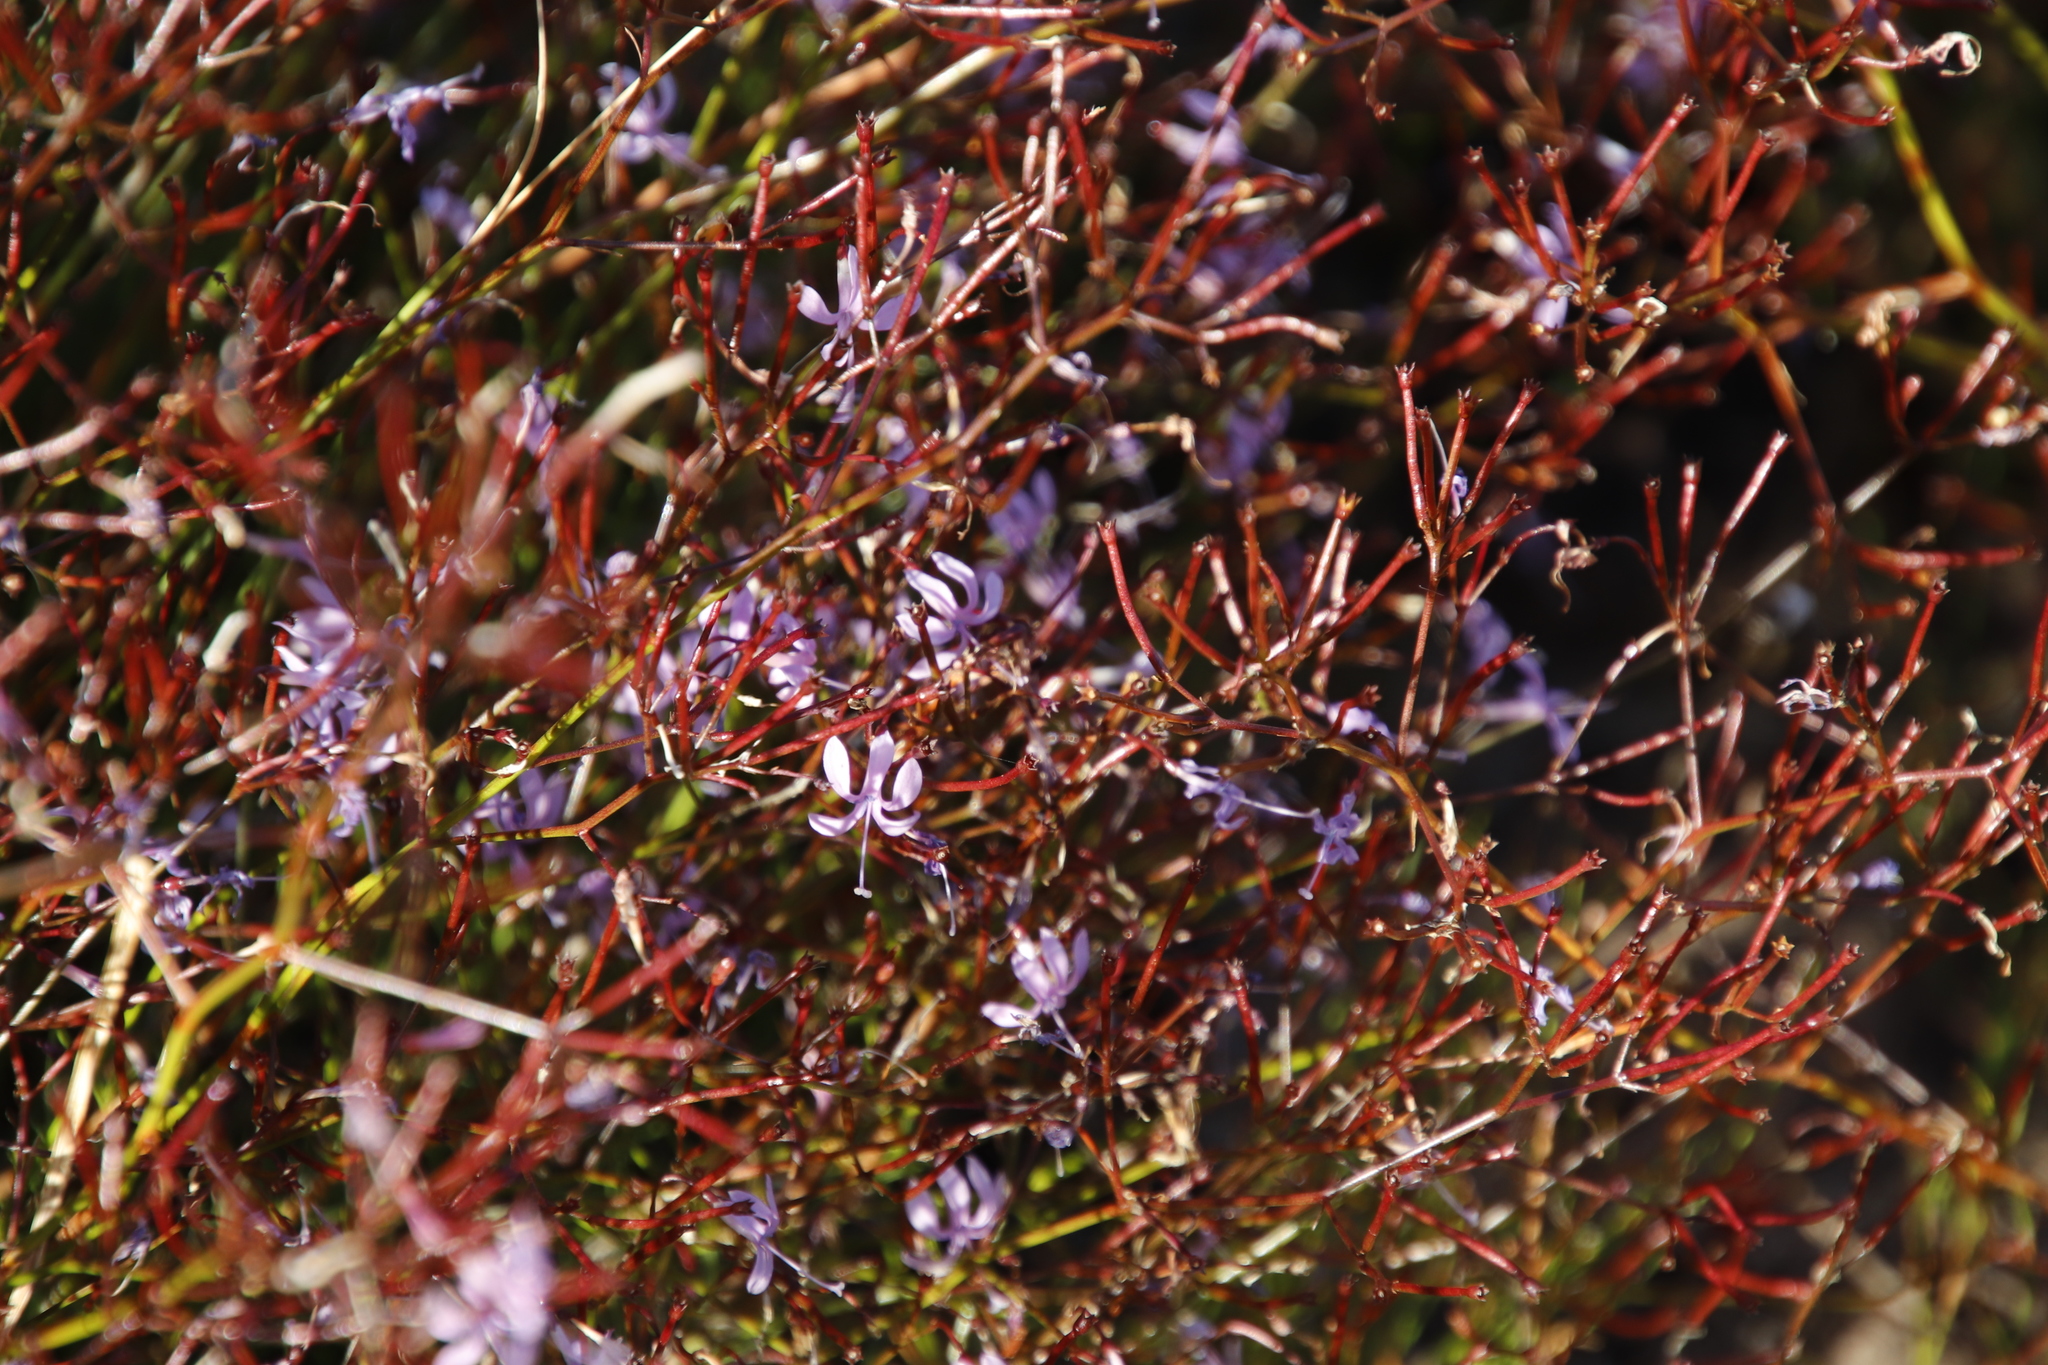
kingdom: Plantae
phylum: Tracheophyta
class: Magnoliopsida
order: Asterales
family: Campanulaceae
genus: Prismatocarpus
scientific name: Prismatocarpus diffusus
